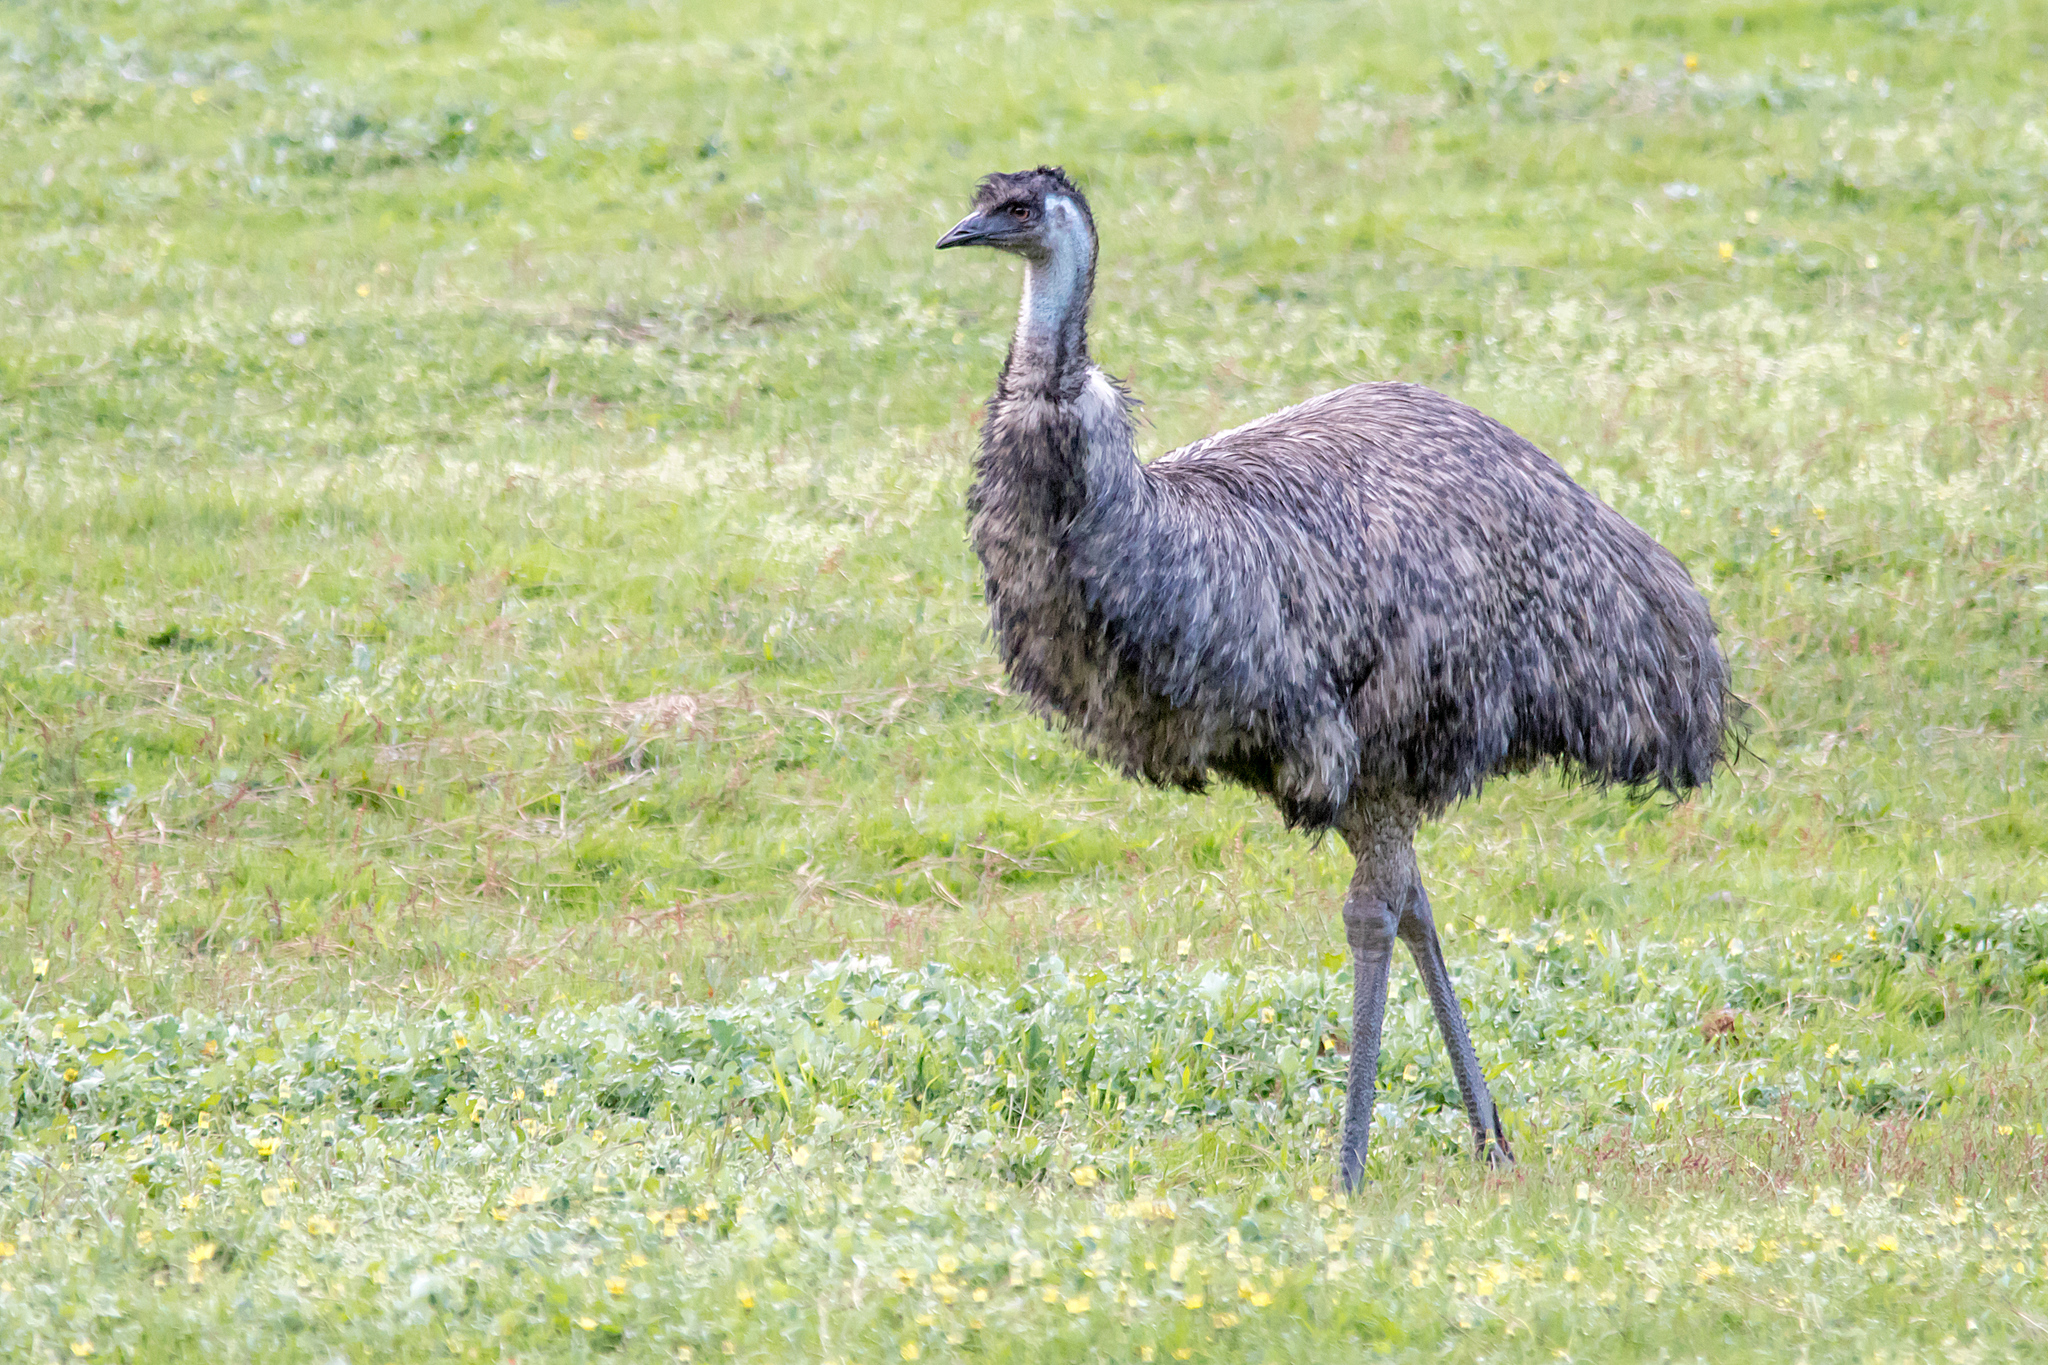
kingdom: Animalia
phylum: Chordata
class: Aves
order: Casuariiformes
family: Dromaiidae
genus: Dromaius
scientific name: Dromaius novaehollandiae
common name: Emu
